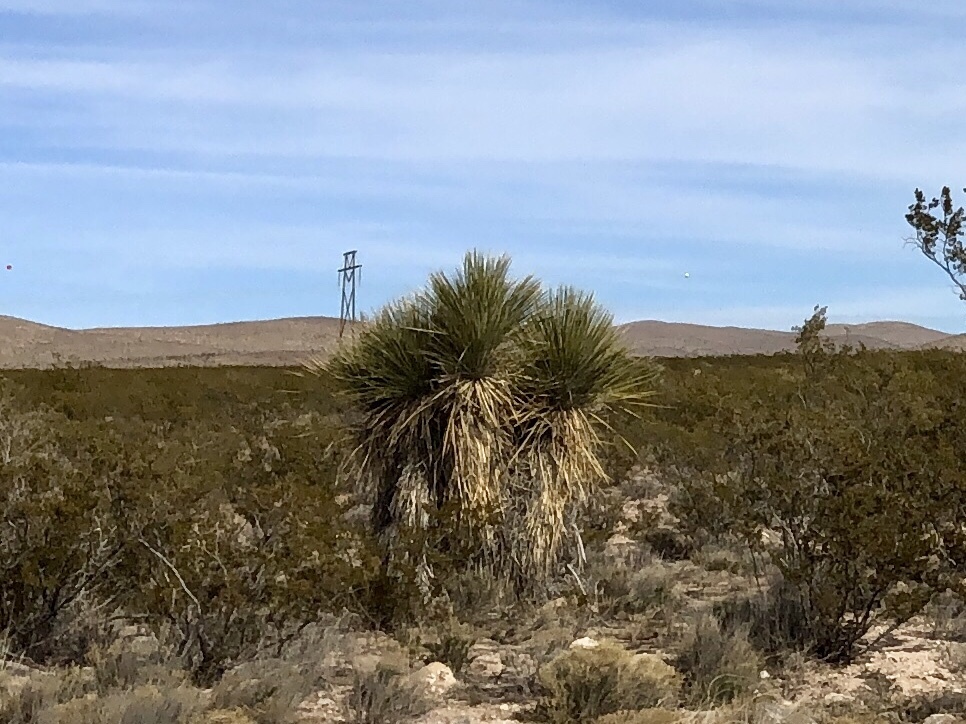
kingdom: Plantae
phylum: Tracheophyta
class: Liliopsida
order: Asparagales
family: Asparagaceae
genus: Yucca
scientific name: Yucca elata
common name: Palmella
